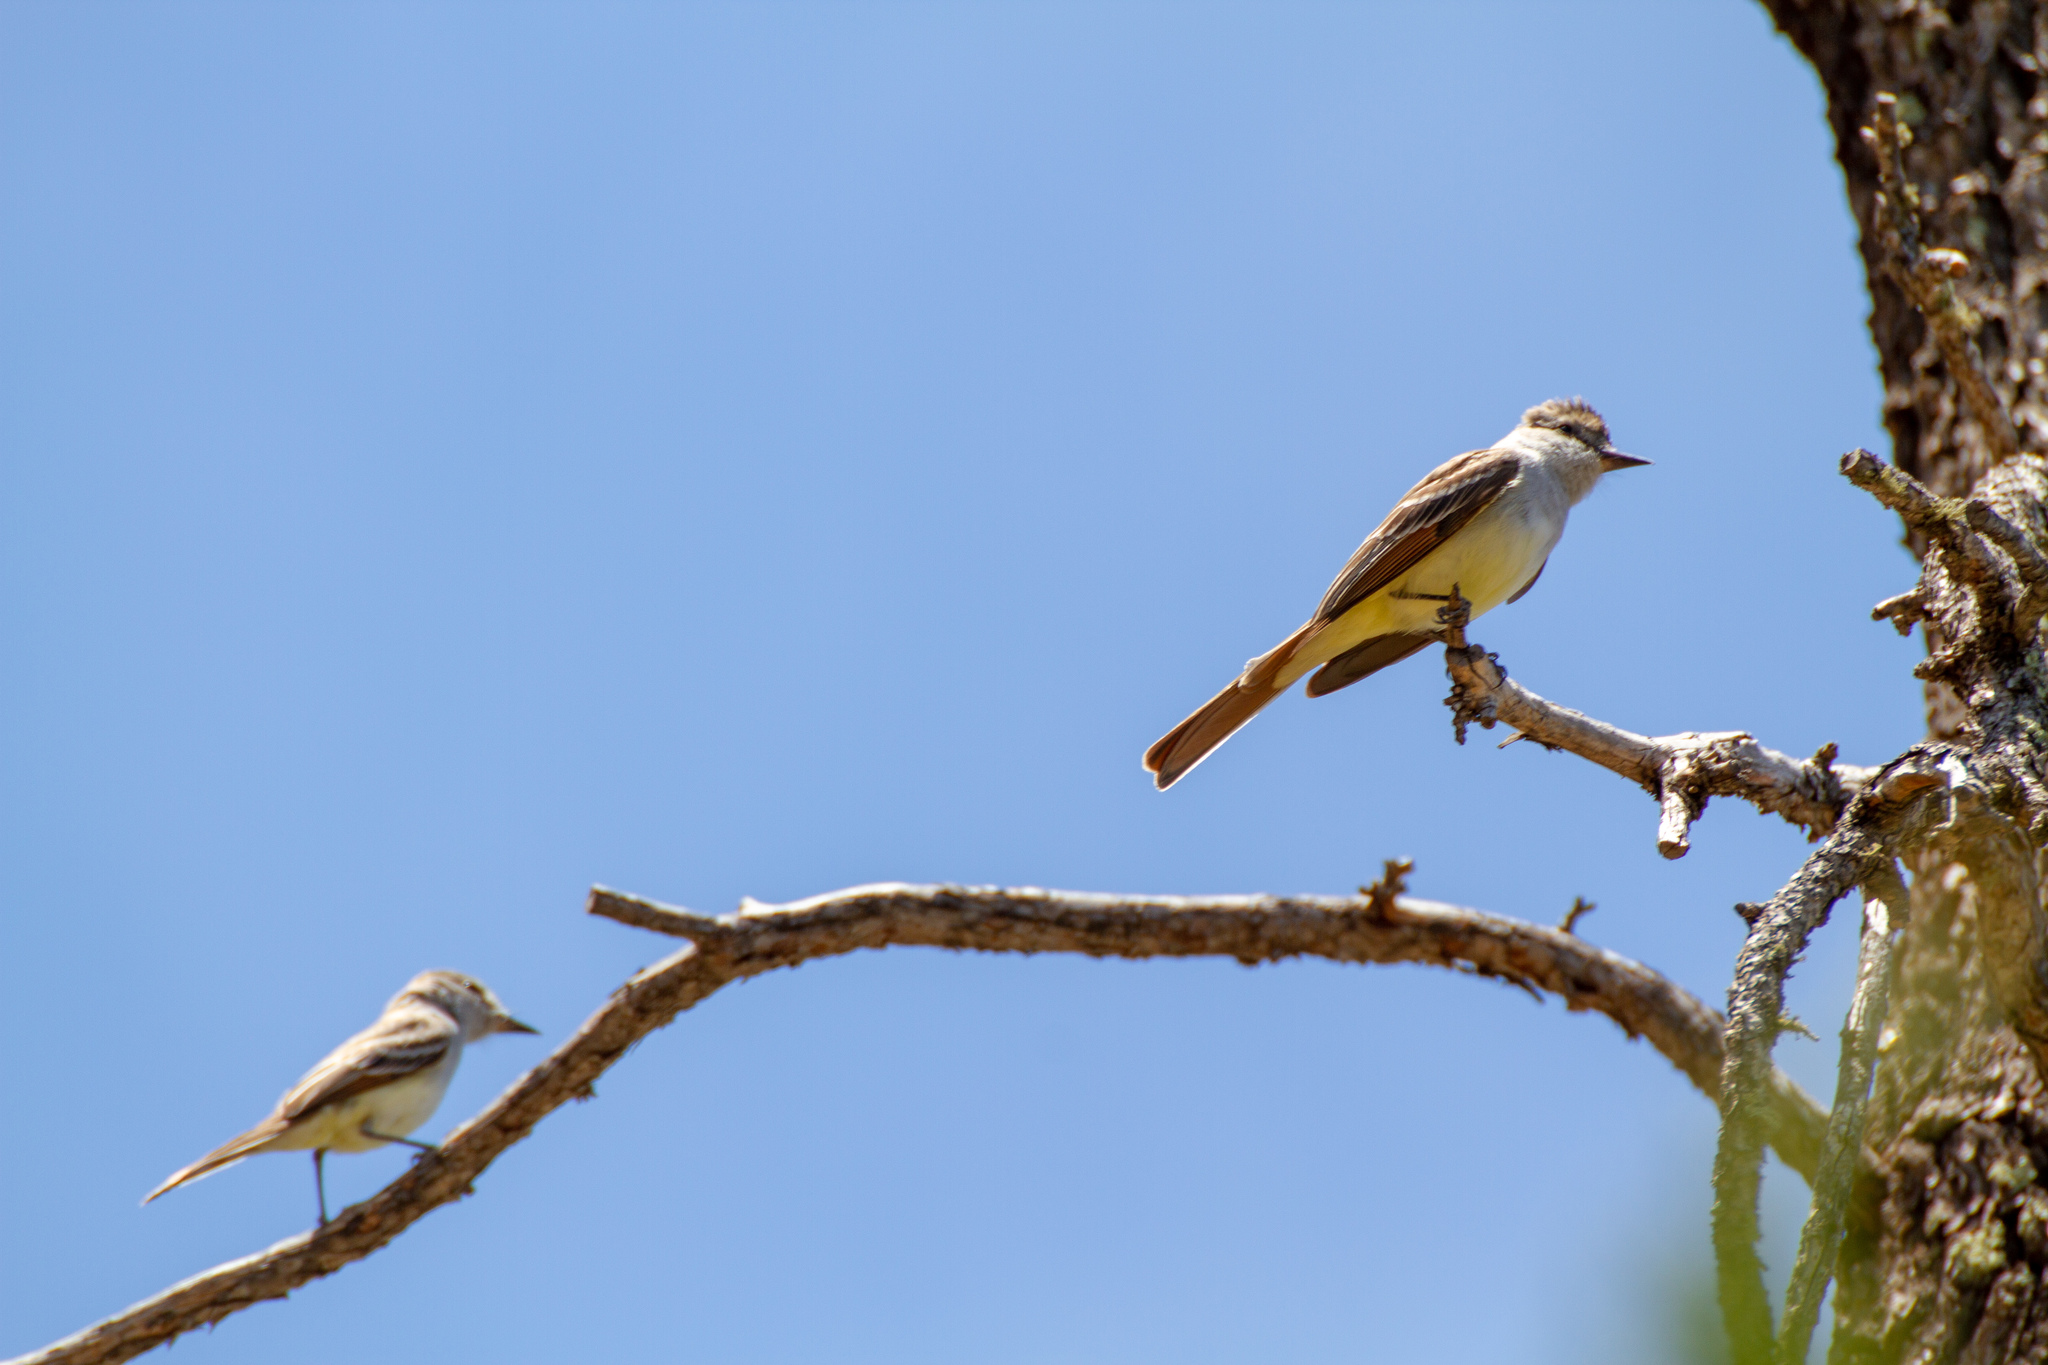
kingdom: Animalia
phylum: Chordata
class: Aves
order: Passeriformes
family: Tyrannidae
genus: Myiarchus
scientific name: Myiarchus tyrannulus
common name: Brown-crested flycatcher
